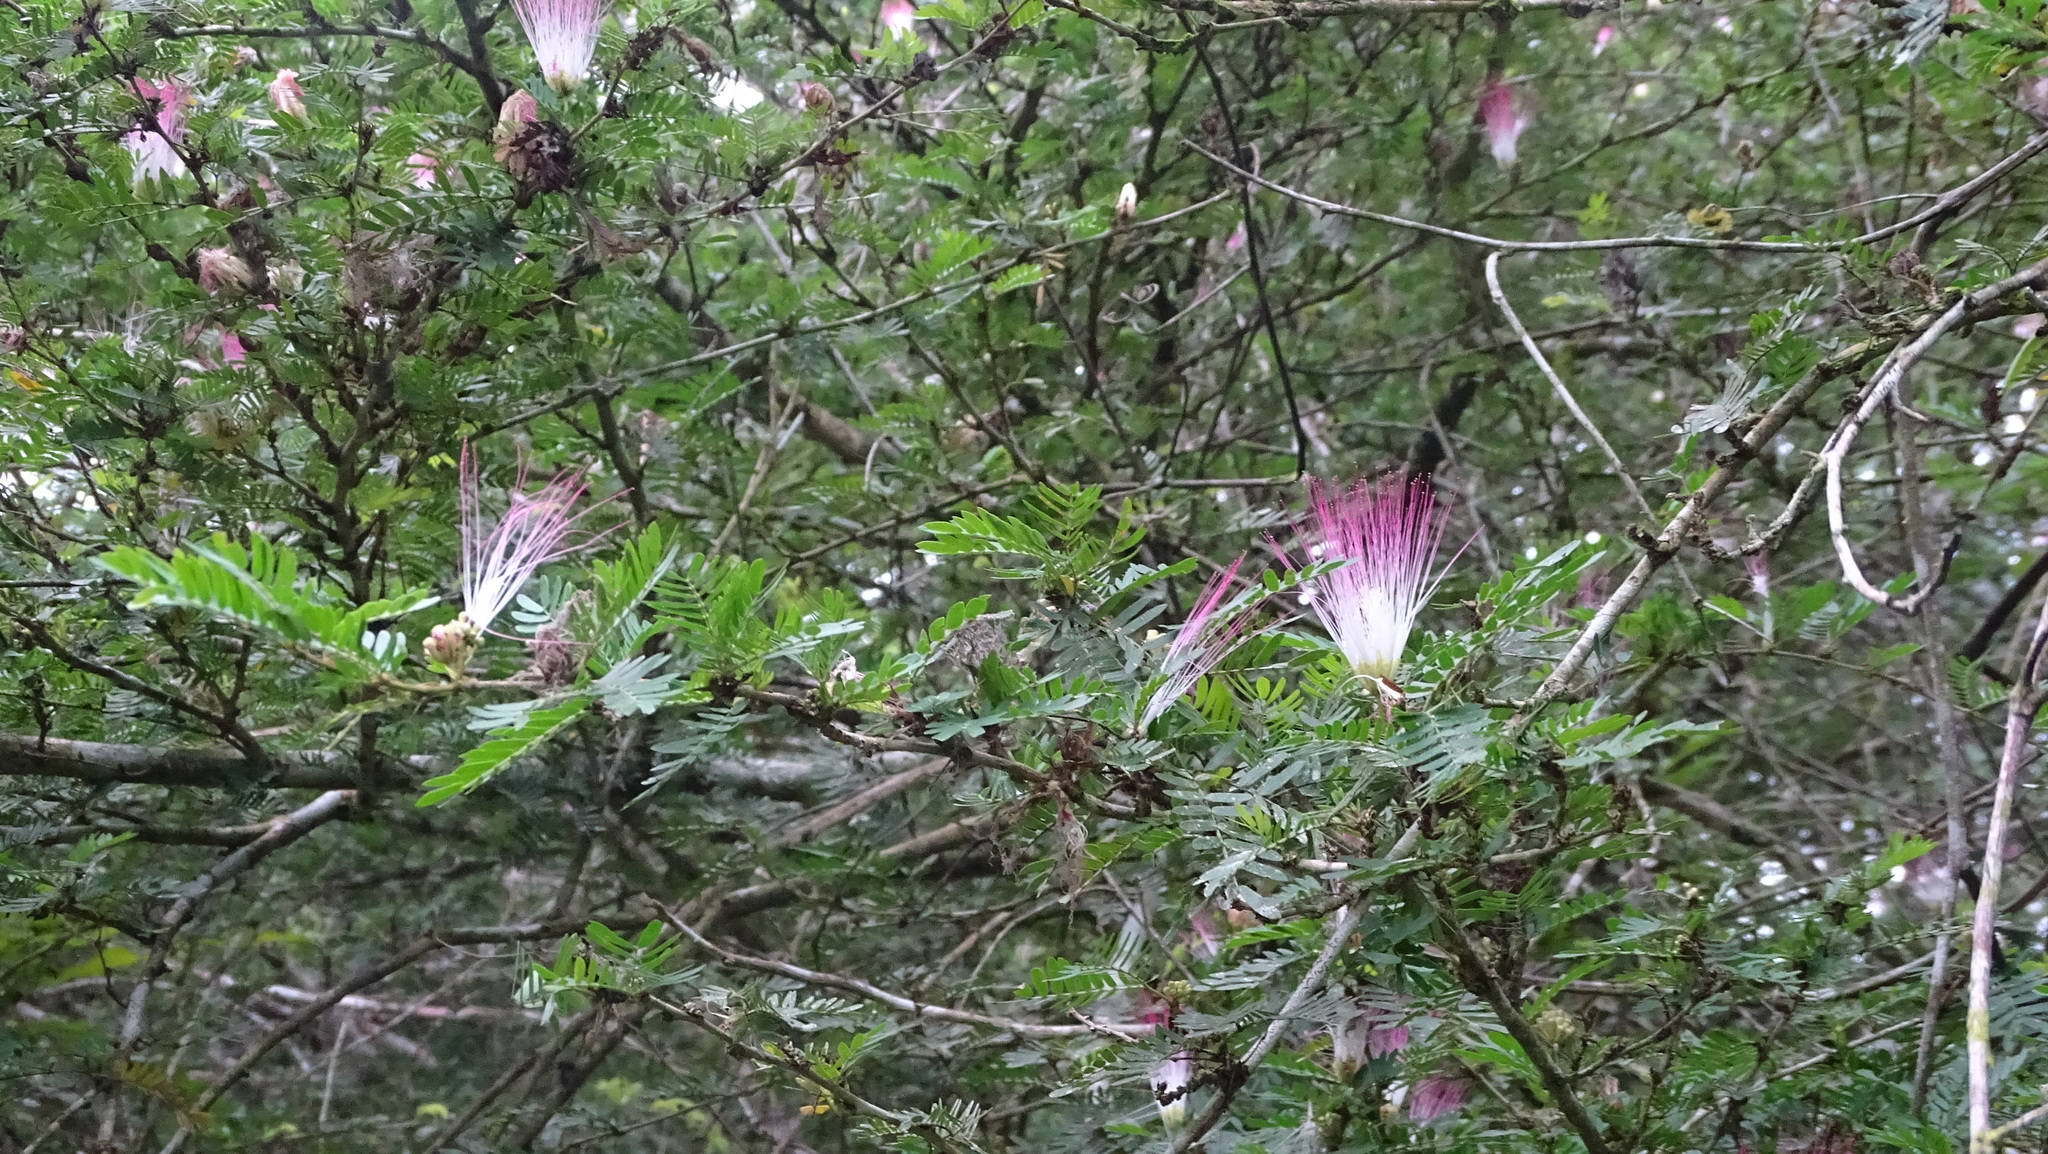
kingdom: Plantae
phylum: Tracheophyta
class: Magnoliopsida
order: Fabales
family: Fabaceae
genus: Calliandra
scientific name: Calliandra surinamensis
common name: Pink powder puff
